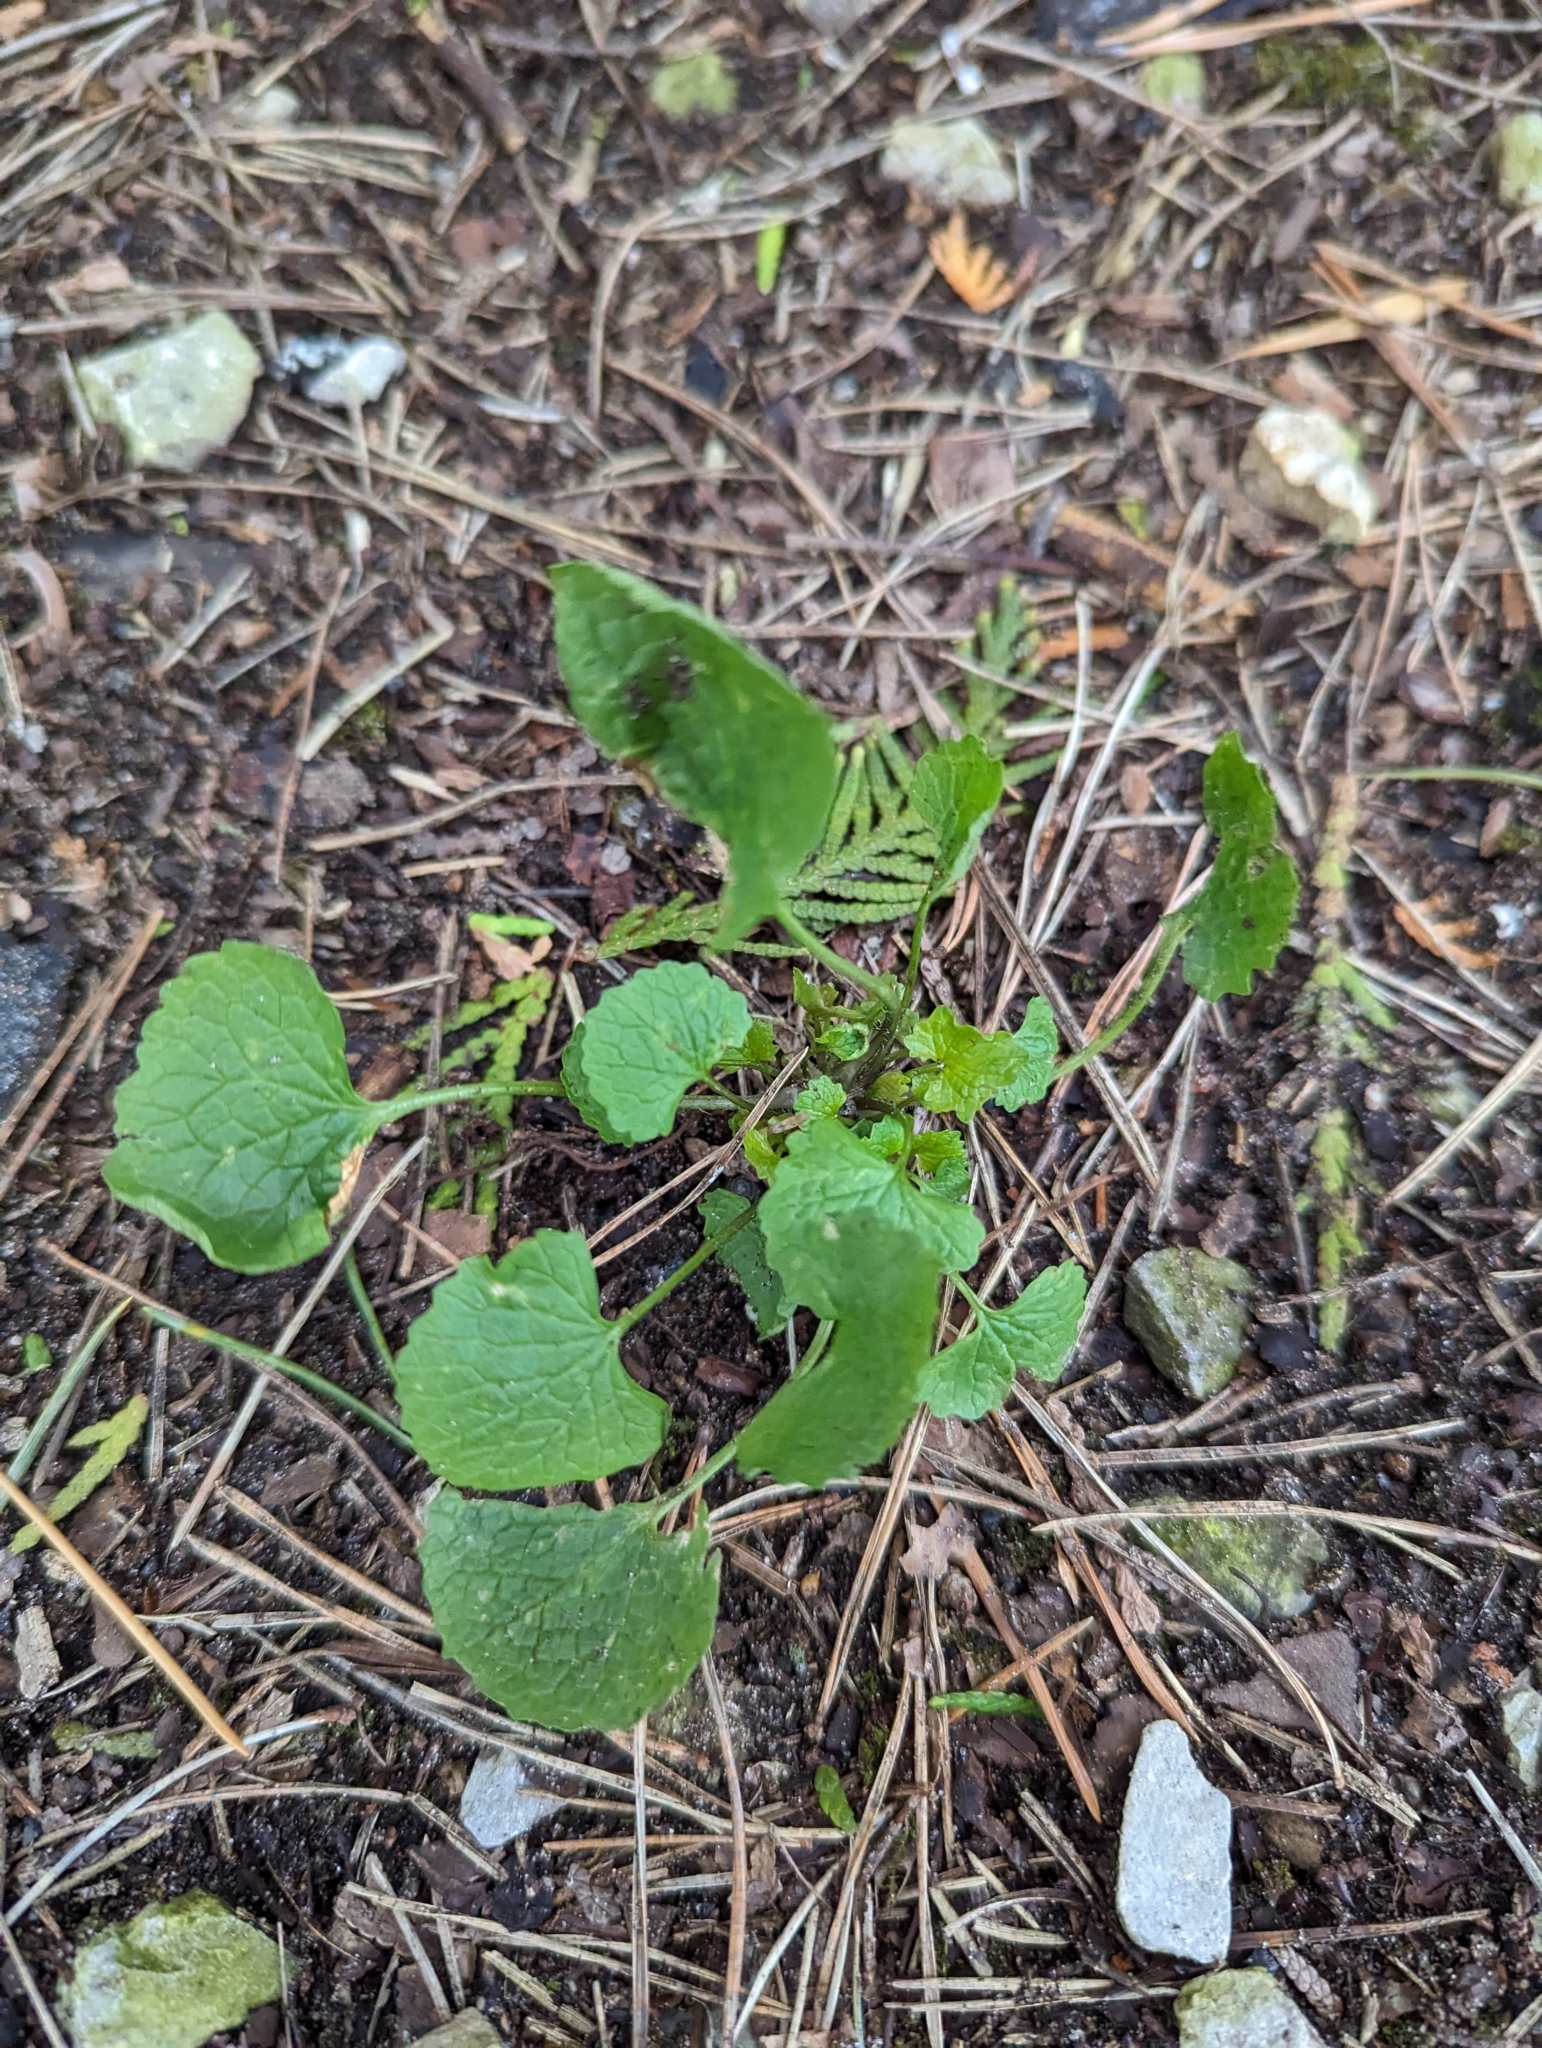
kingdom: Plantae
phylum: Tracheophyta
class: Magnoliopsida
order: Brassicales
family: Brassicaceae
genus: Alliaria
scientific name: Alliaria petiolata
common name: Garlic mustard
